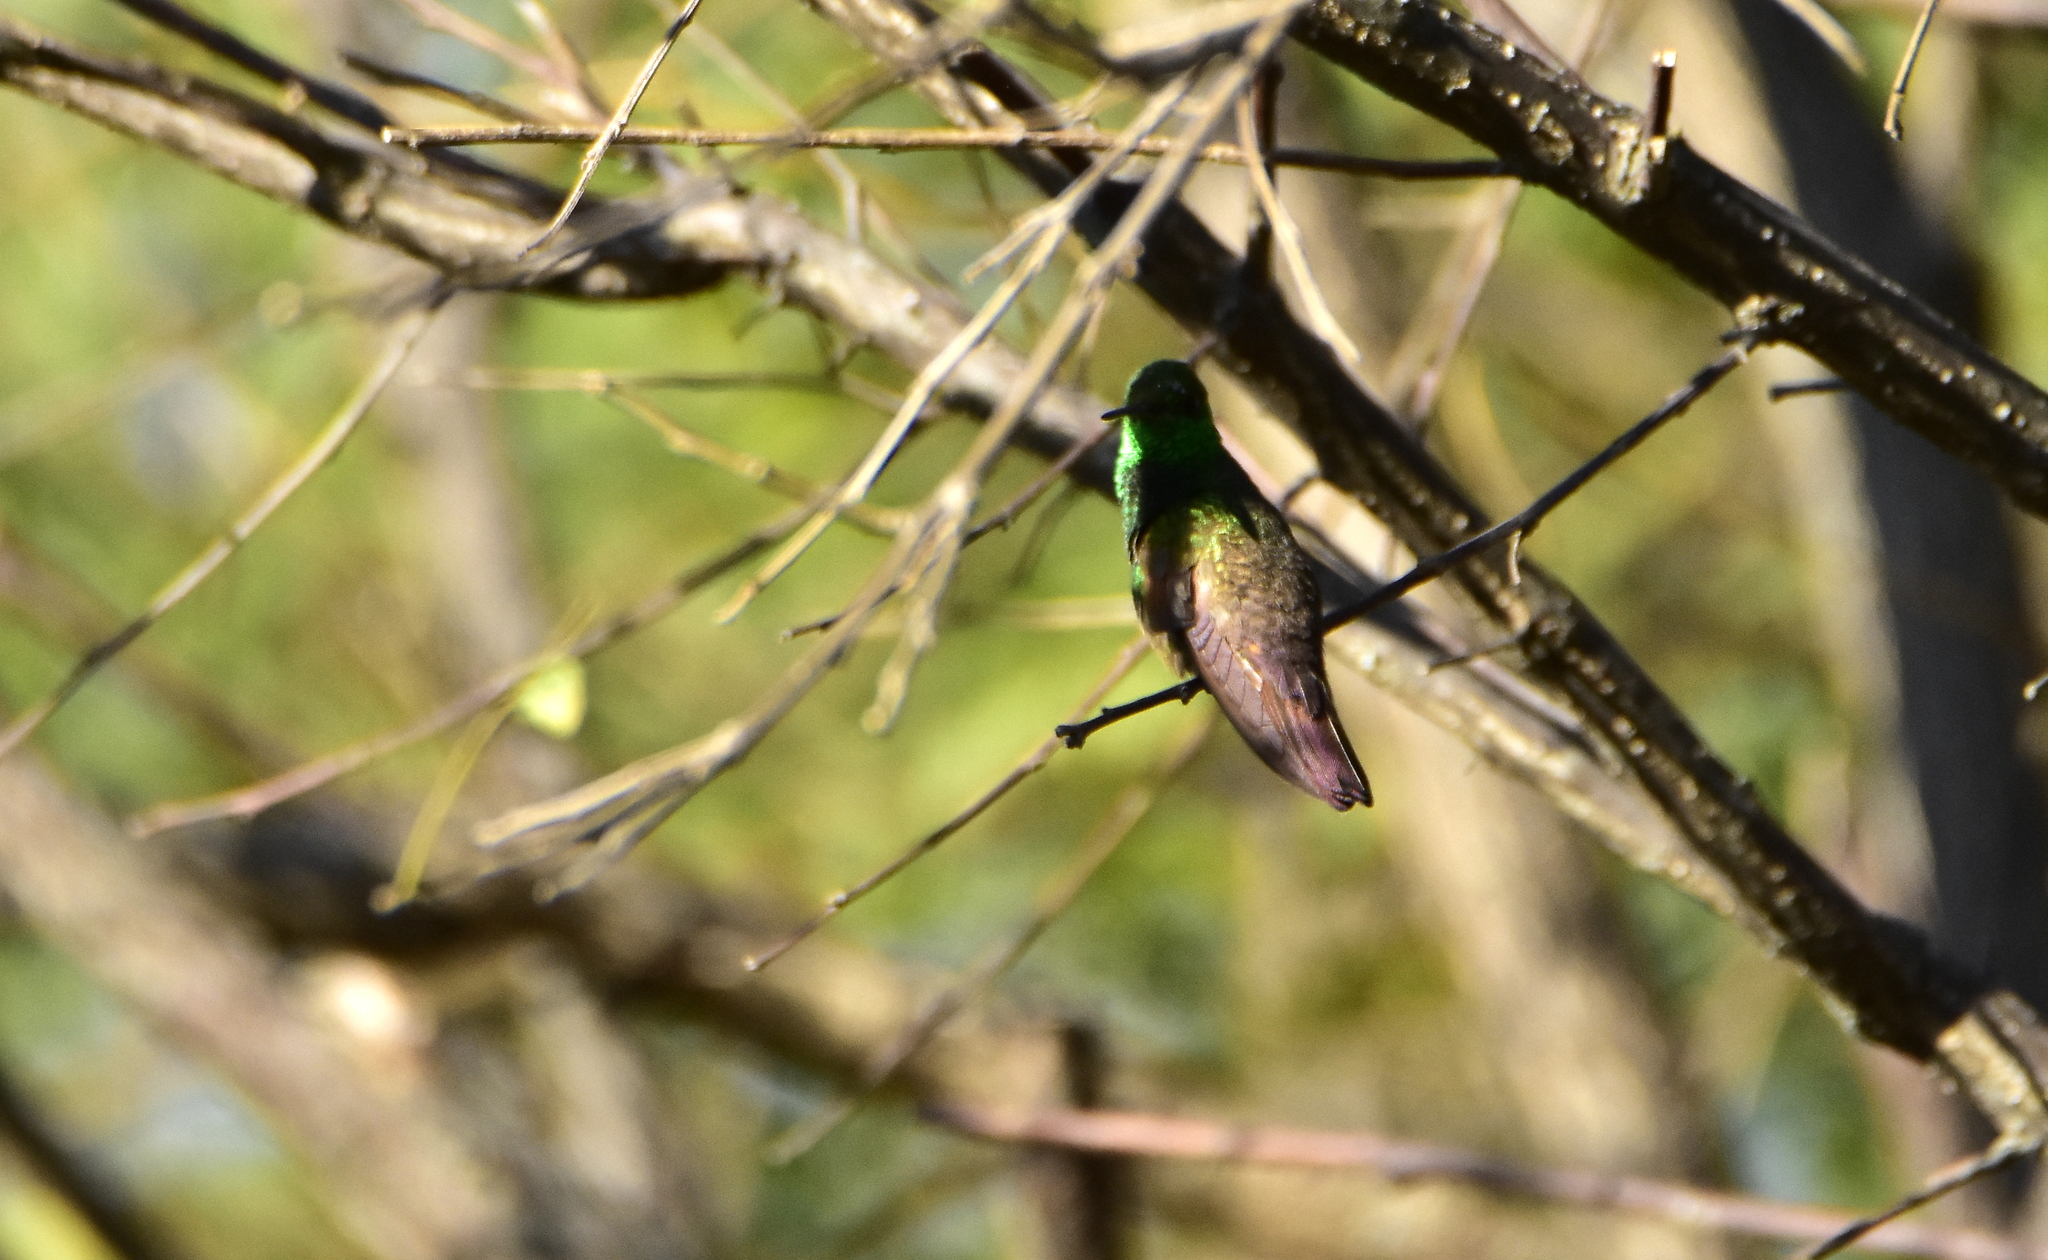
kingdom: Animalia
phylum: Chordata
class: Aves
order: Apodiformes
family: Trochilidae
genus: Saucerottia
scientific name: Saucerottia beryllina
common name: Berylline hummingbird
